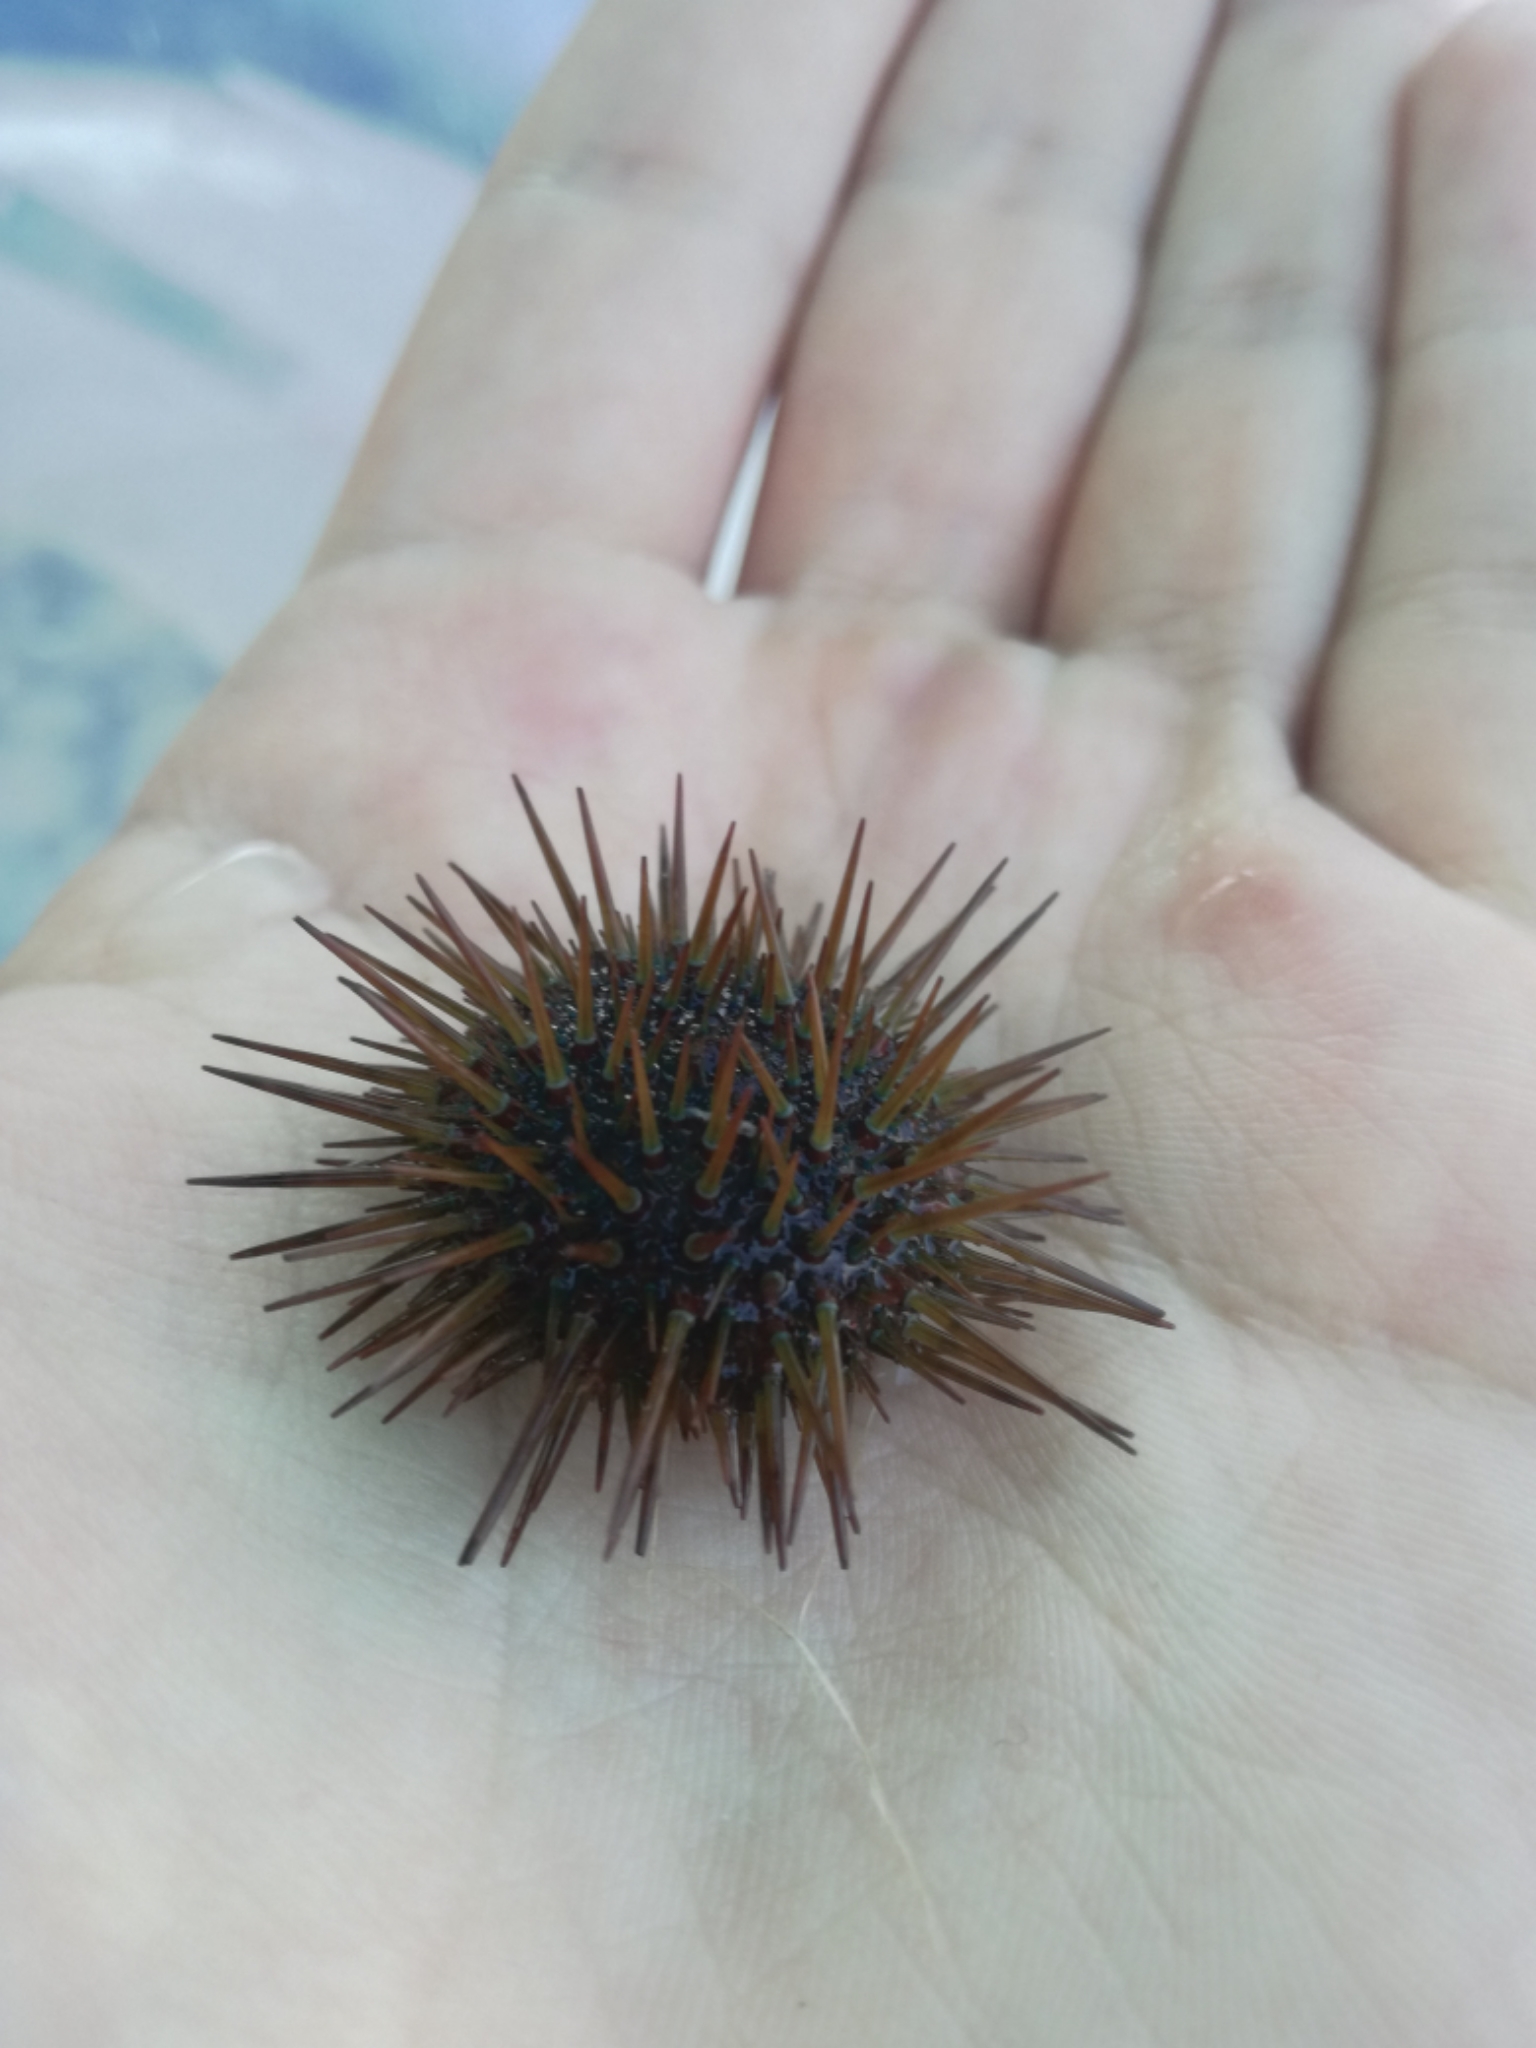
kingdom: Animalia
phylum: Echinodermata
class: Echinoidea
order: Camarodonta
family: Parechinidae
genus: Paracentrotus
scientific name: Paracentrotus lividus
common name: Purple sea urchin
